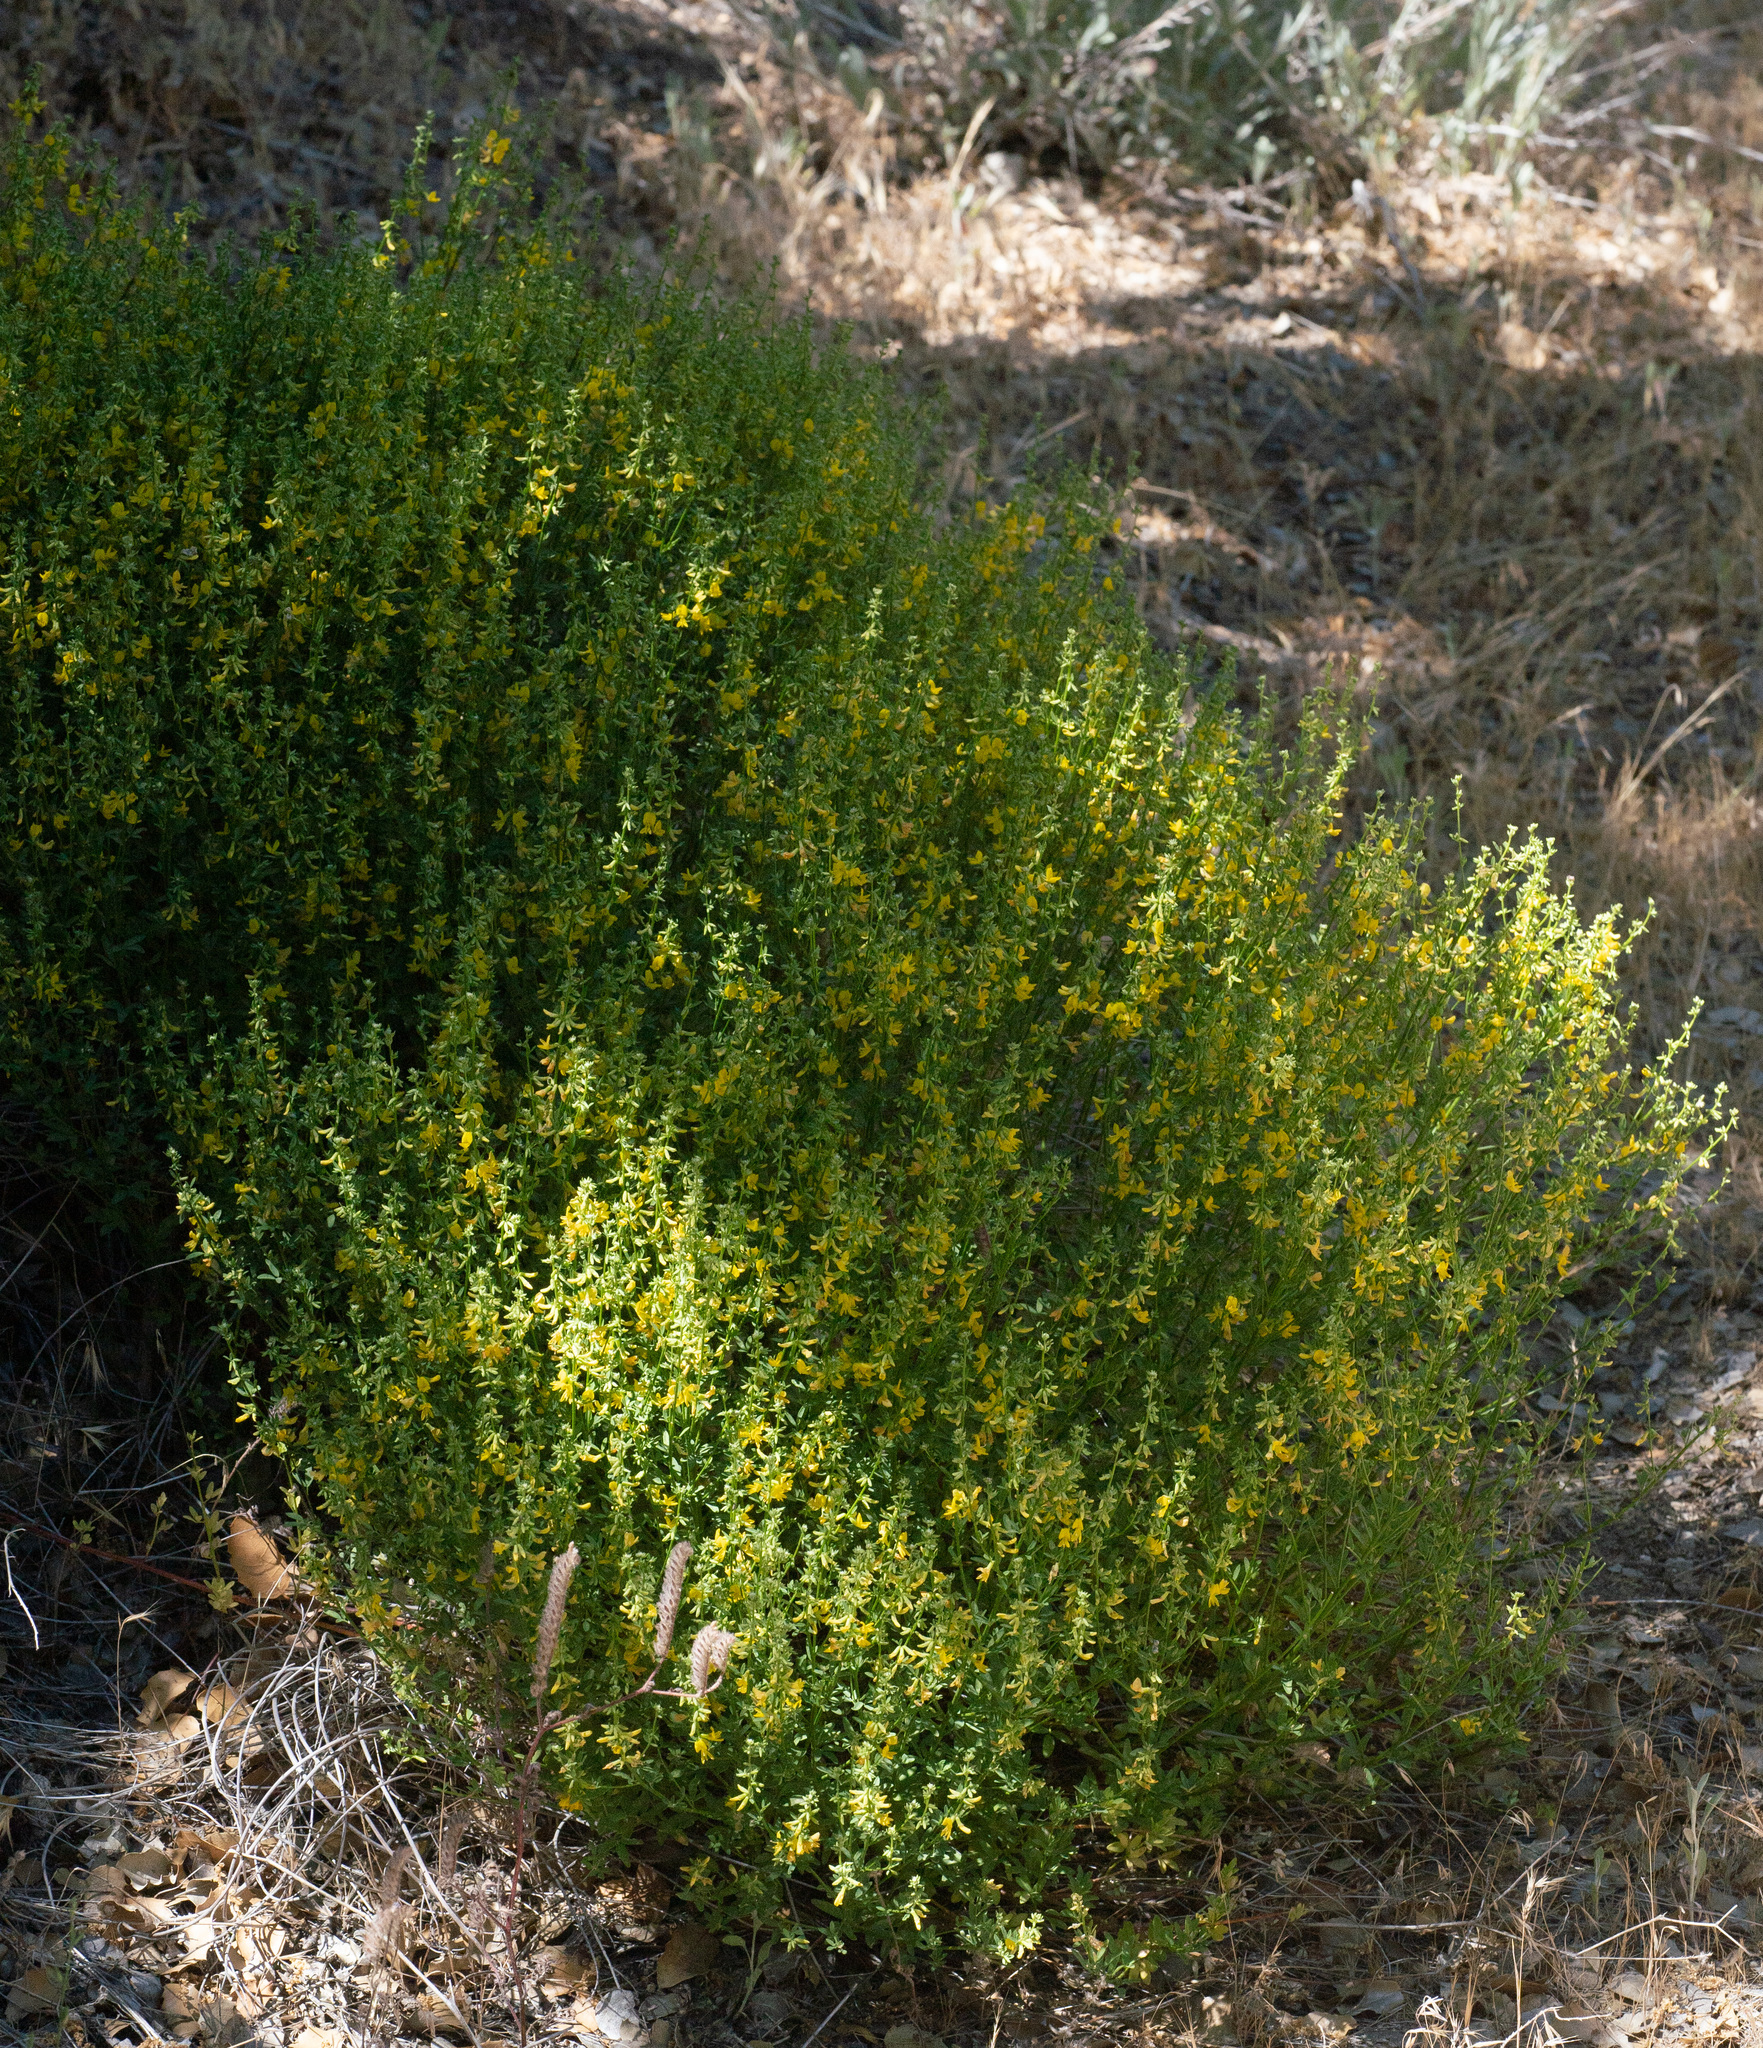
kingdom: Plantae
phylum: Tracheophyta
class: Magnoliopsida
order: Fabales
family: Fabaceae
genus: Acmispon
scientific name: Acmispon glaber
